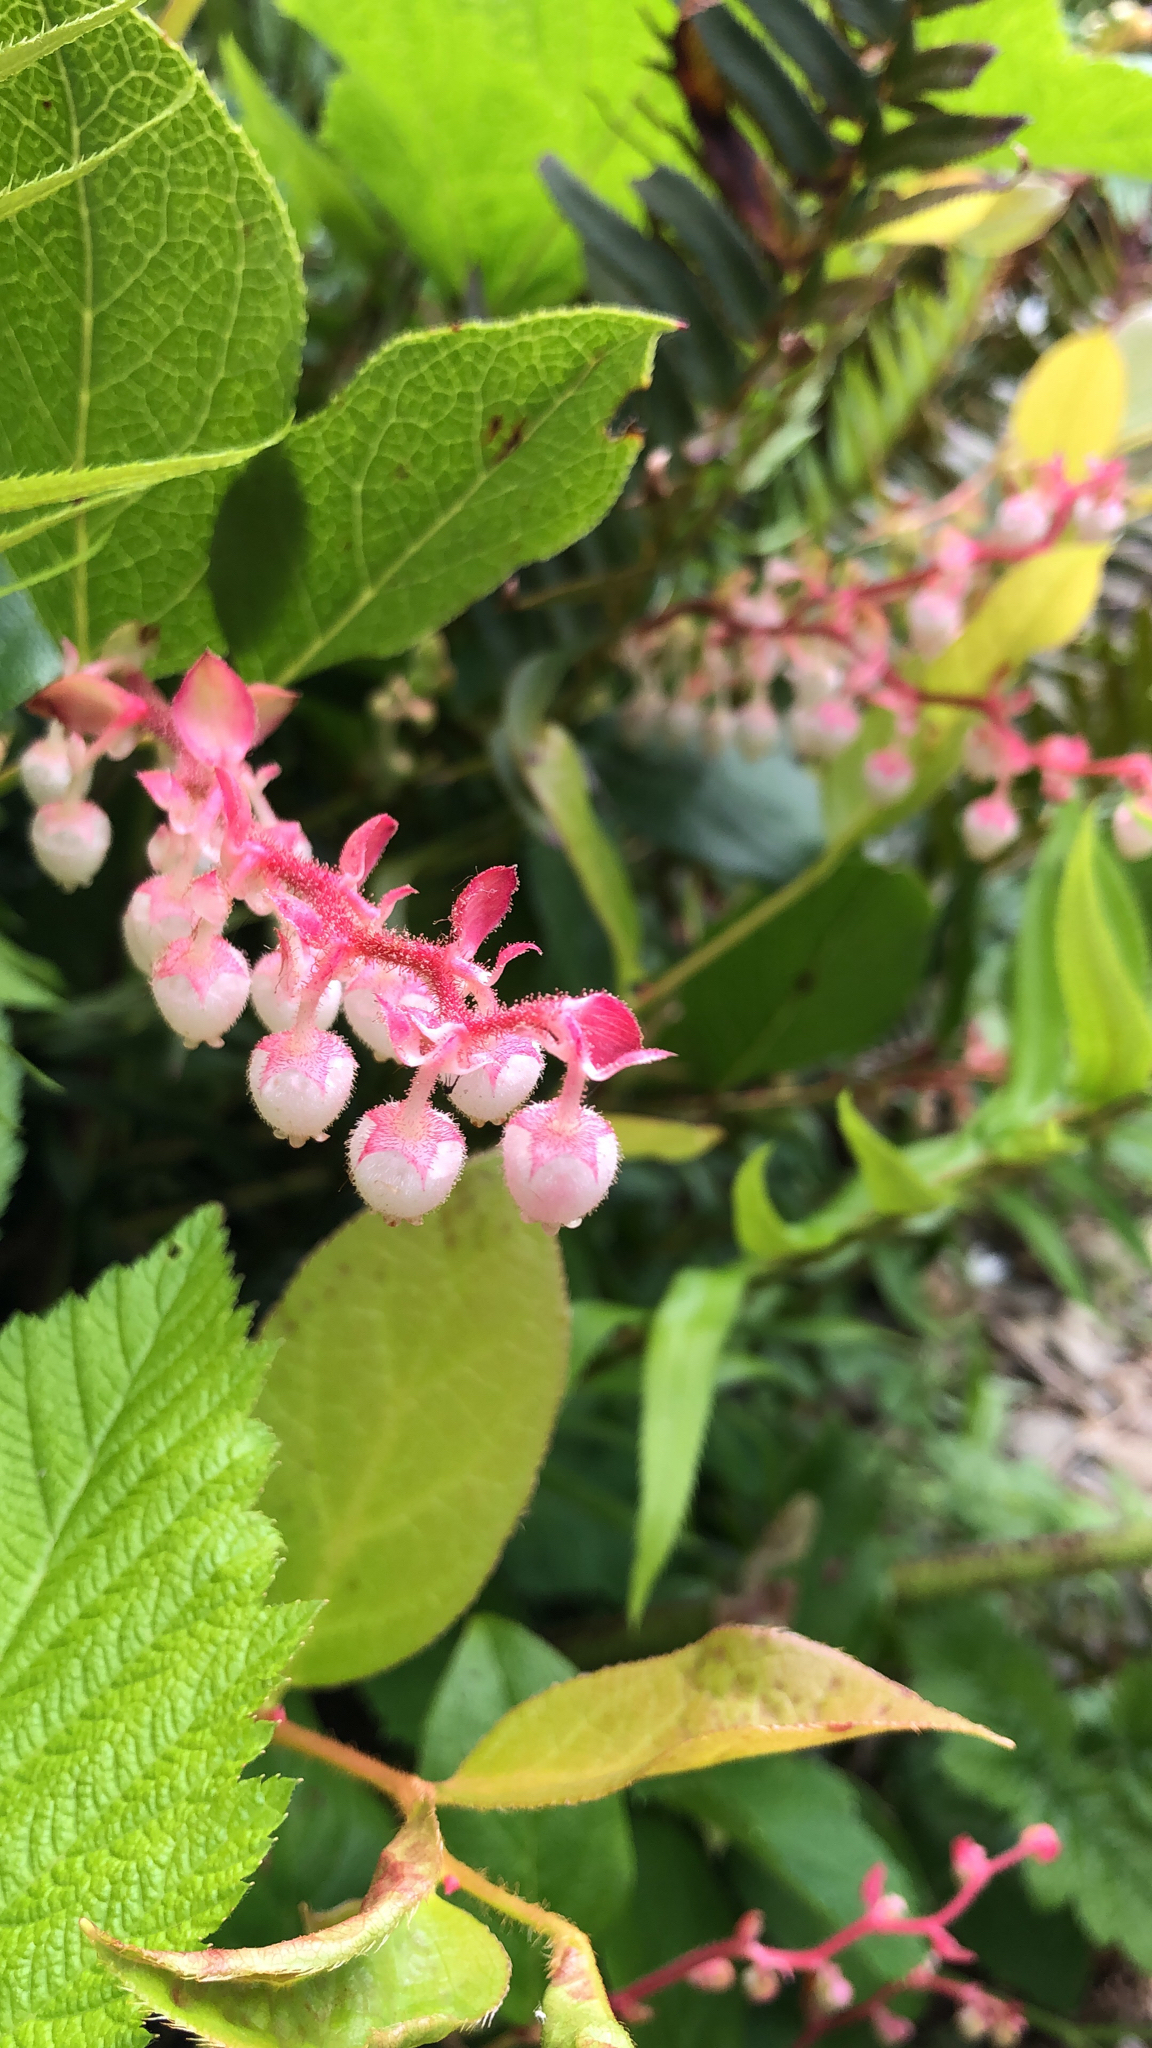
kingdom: Plantae
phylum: Tracheophyta
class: Magnoliopsida
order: Ericales
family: Ericaceae
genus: Gaultheria
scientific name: Gaultheria shallon
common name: Shallon
